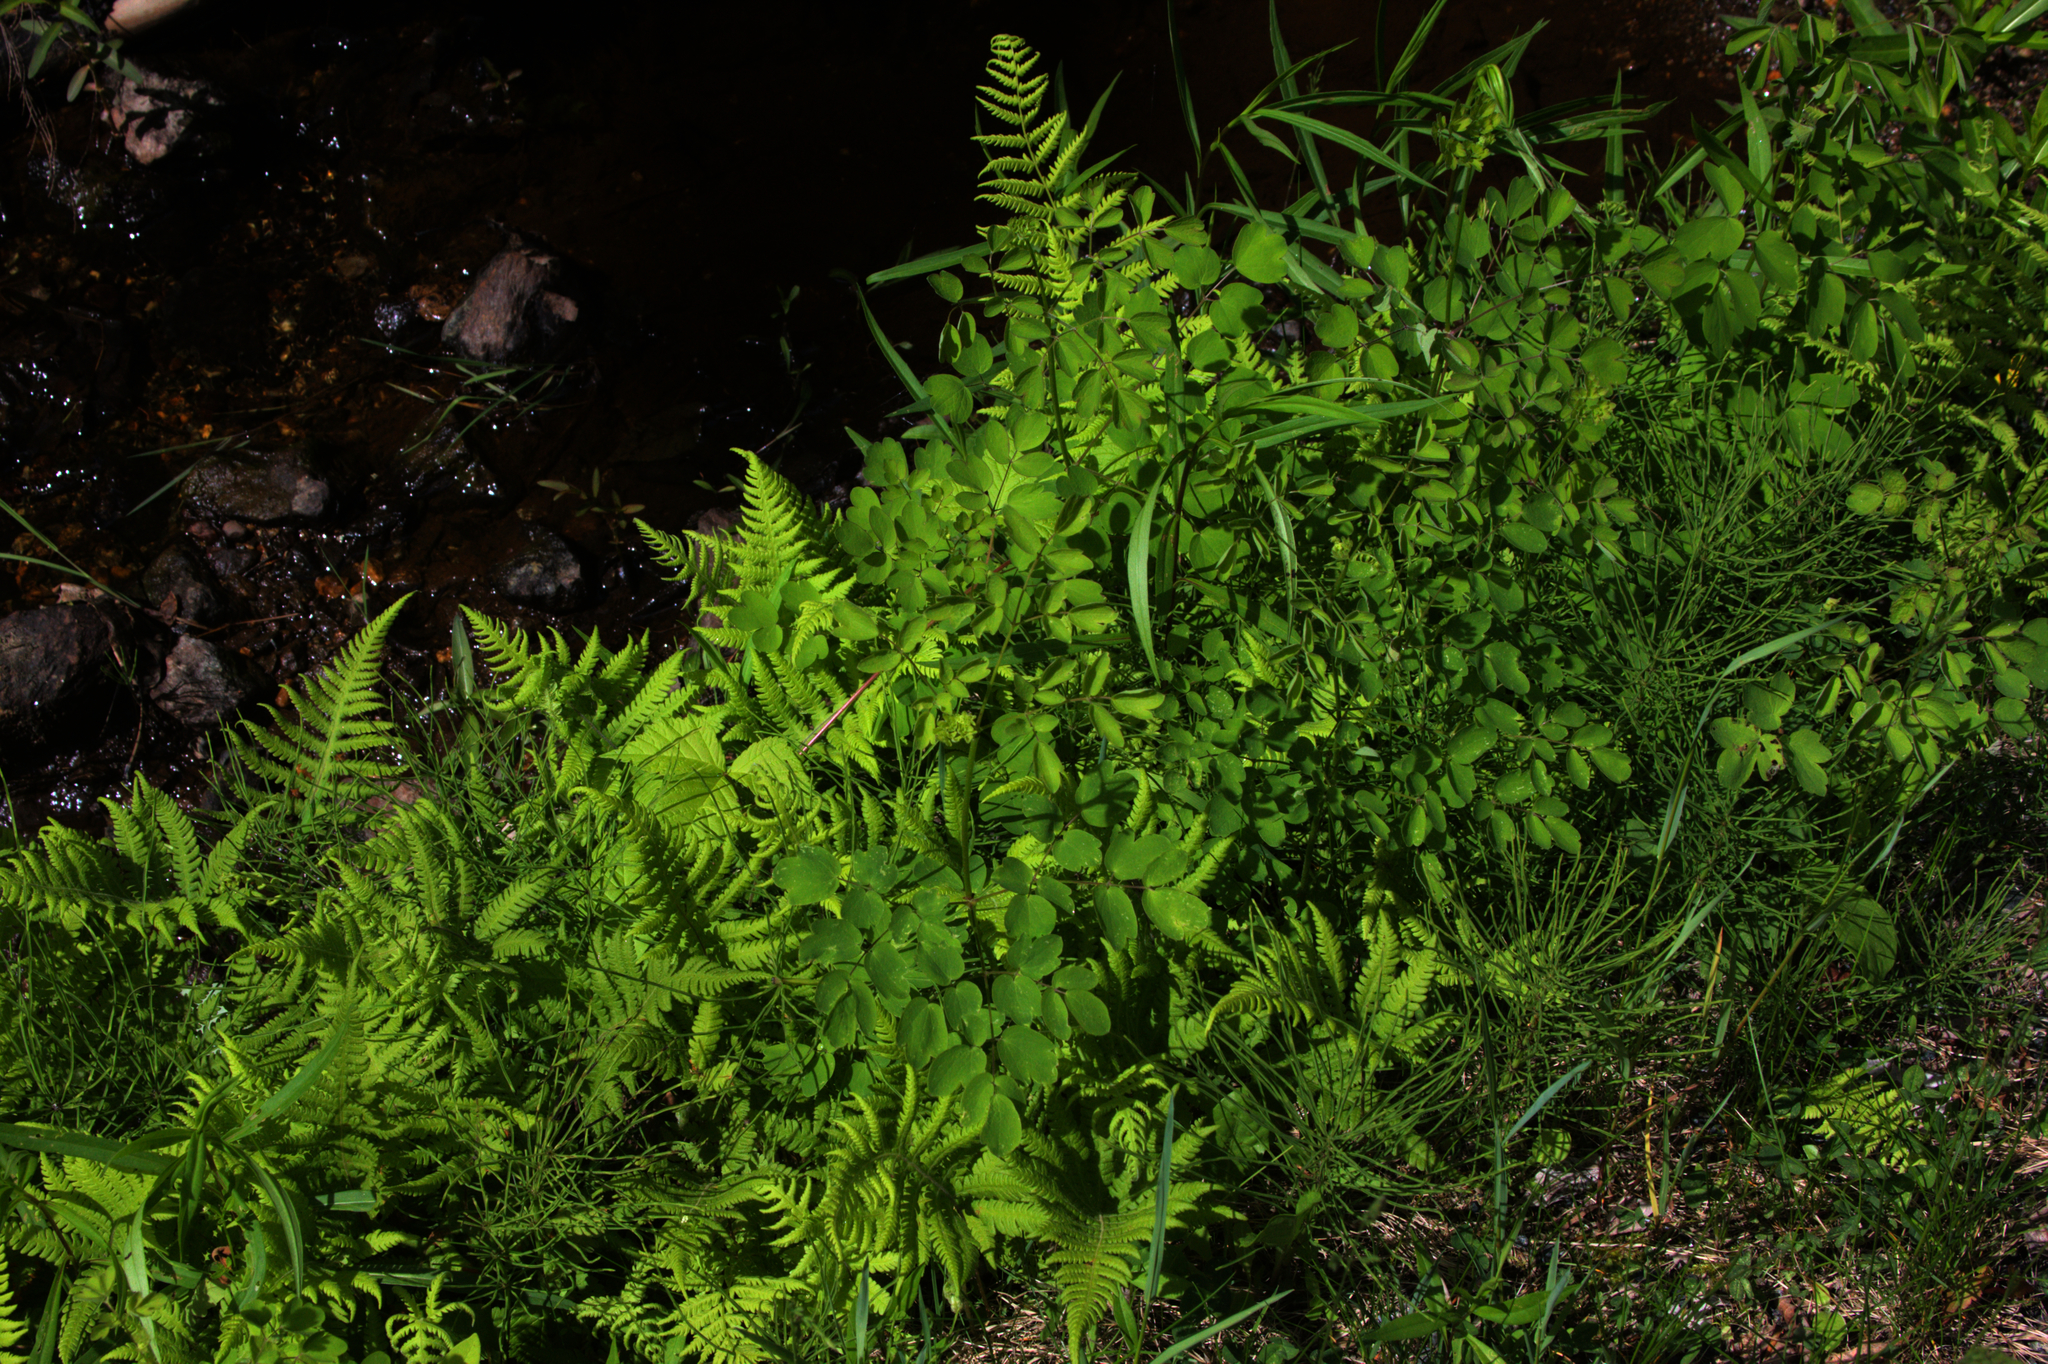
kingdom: Plantae
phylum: Tracheophyta
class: Polypodiopsida
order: Equisetales
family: Equisetaceae
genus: Equisetum
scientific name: Equisetum arvense
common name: Field horsetail
